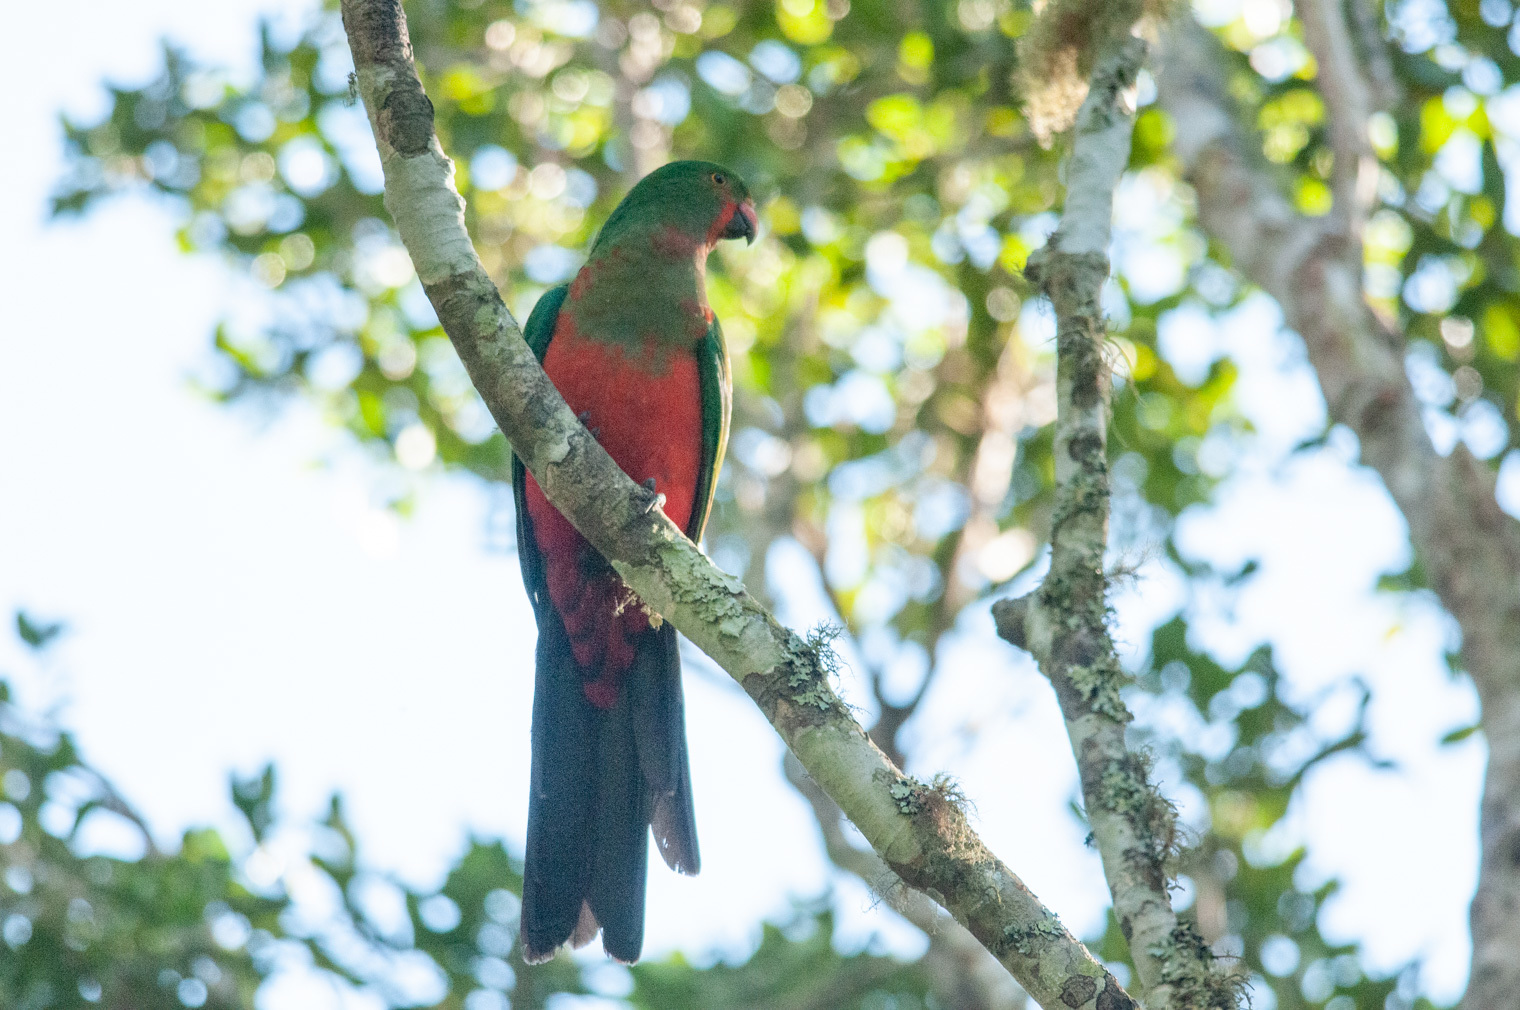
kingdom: Animalia
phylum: Chordata
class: Aves
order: Psittaciformes
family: Psittacidae
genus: Alisterus
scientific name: Alisterus scapularis
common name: Australian king parrot
